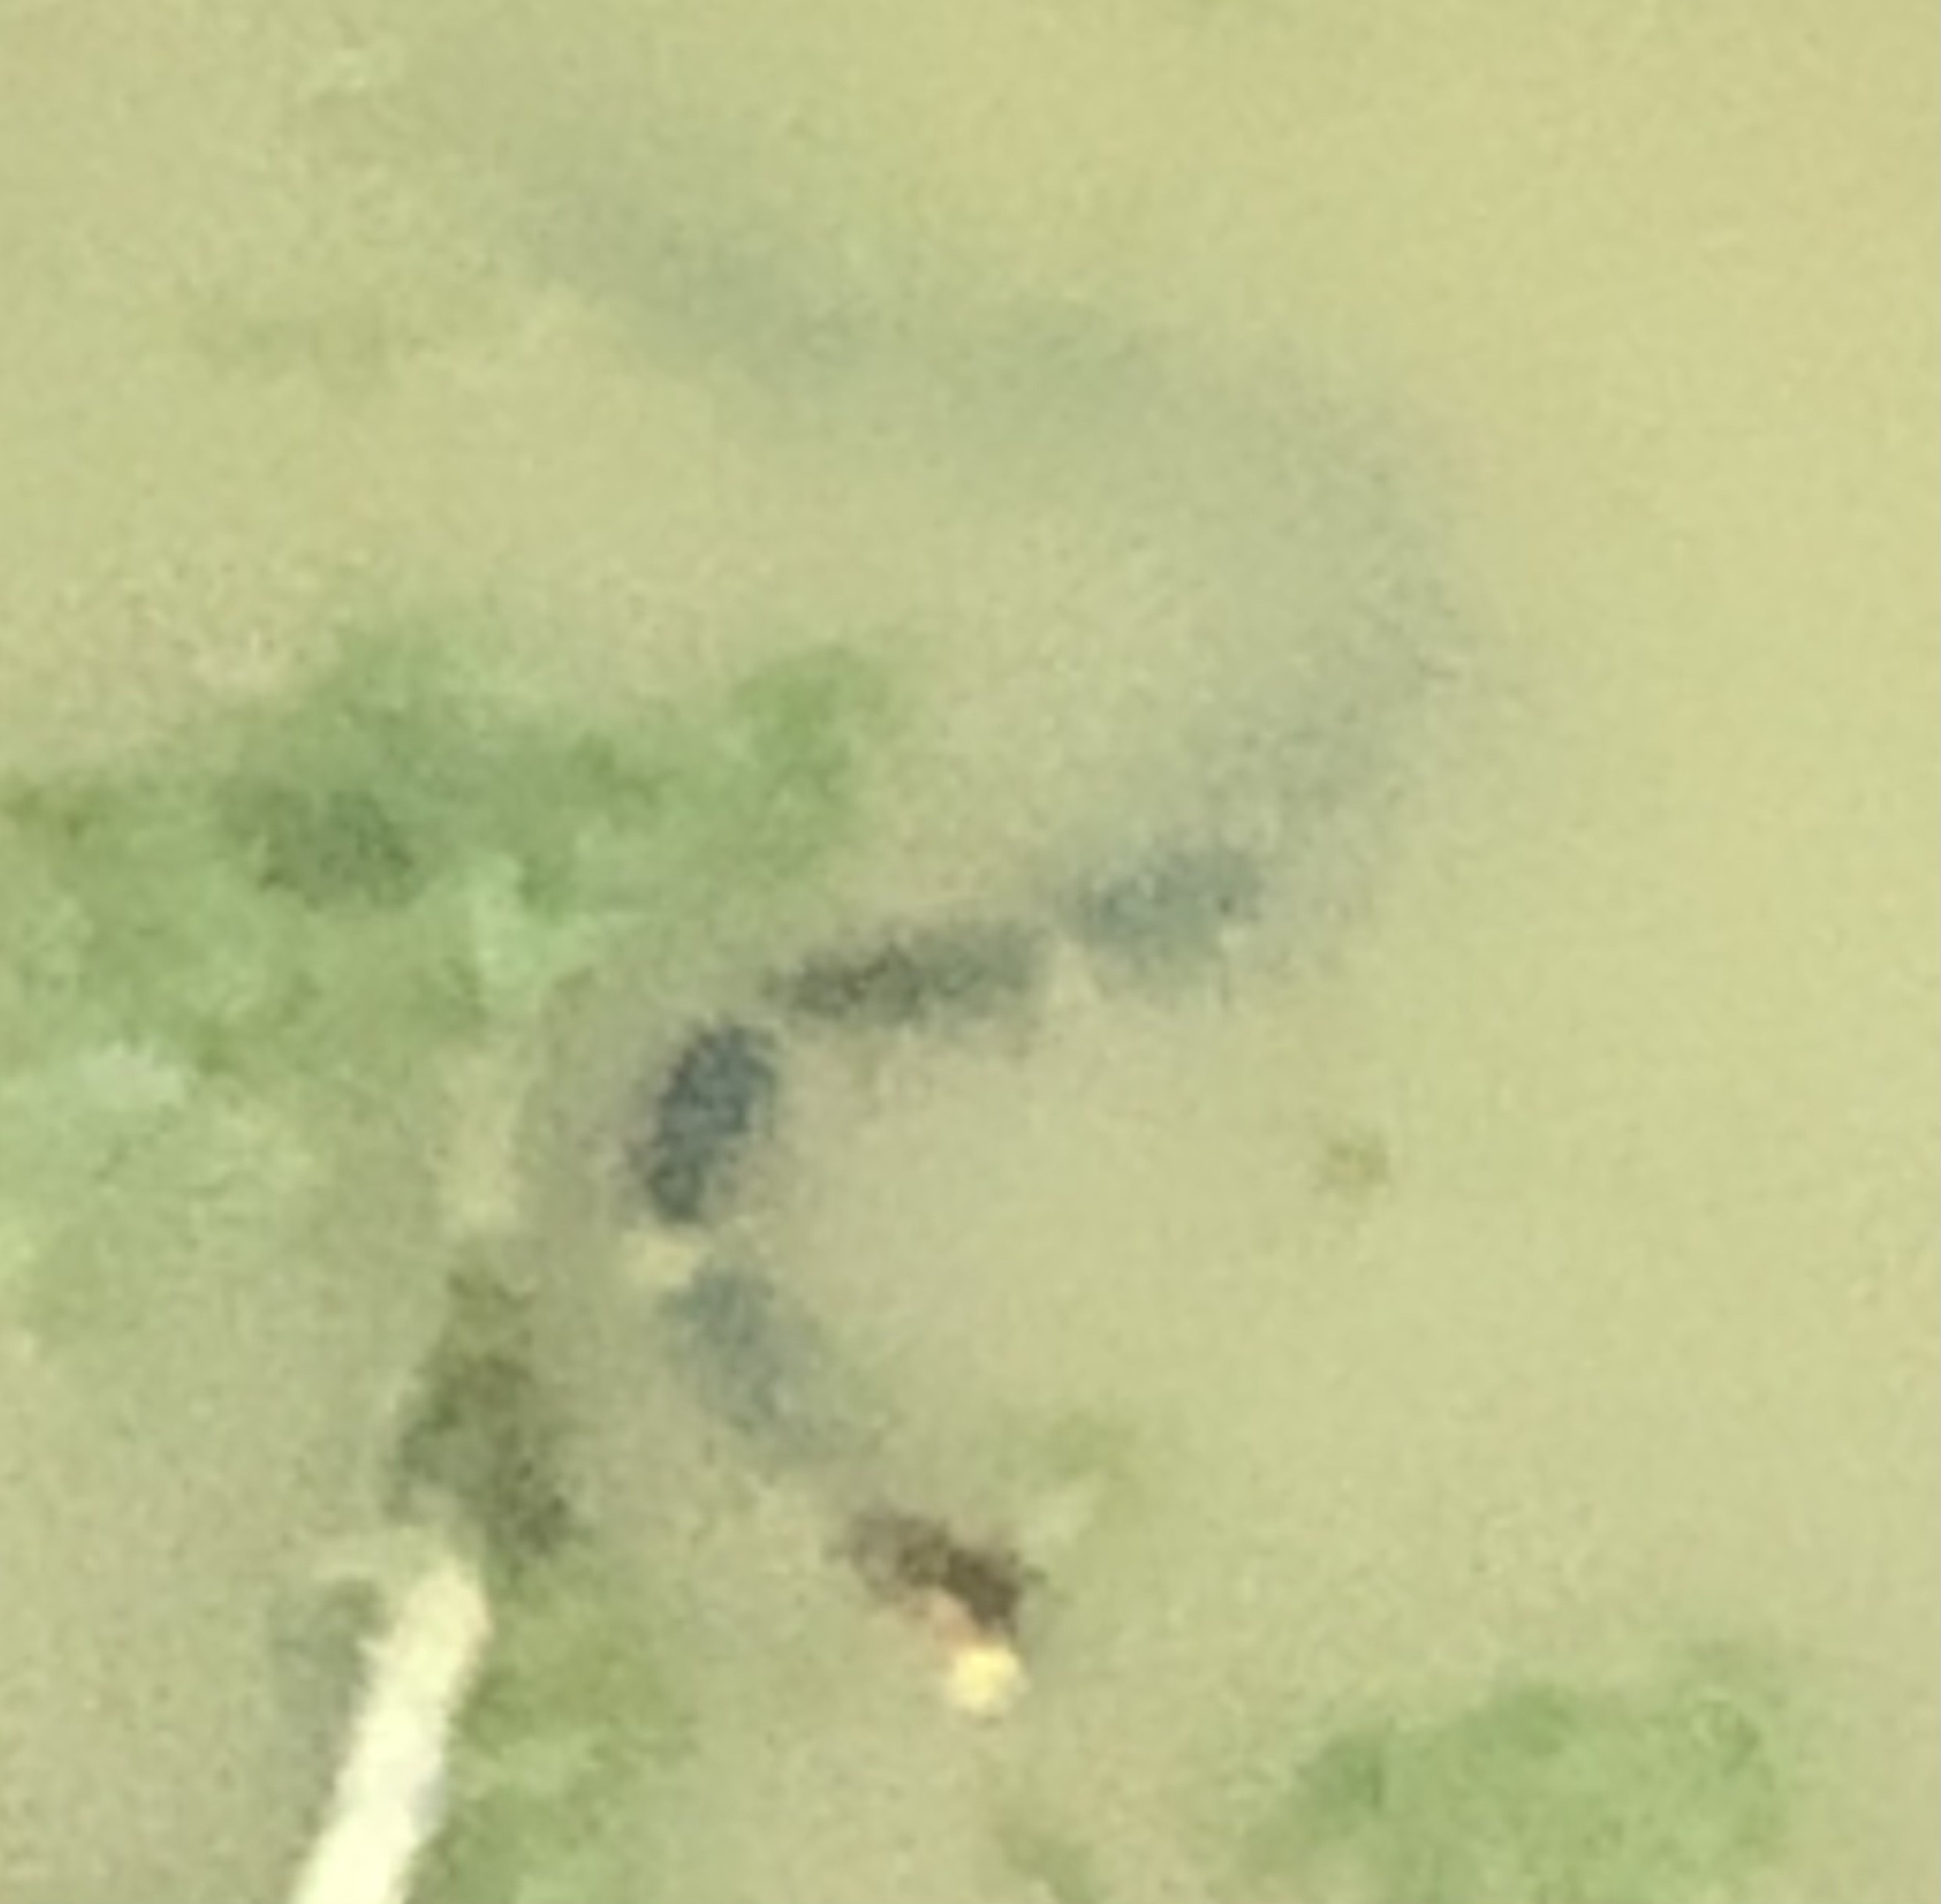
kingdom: Animalia
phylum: Chordata
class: Squamata
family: Colubridae
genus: Nerodia
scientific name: Nerodia fasciata
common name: Southern water snake
